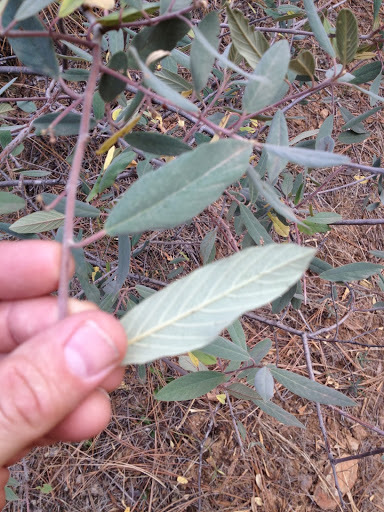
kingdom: Plantae
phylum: Tracheophyta
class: Magnoliopsida
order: Rosales
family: Rhamnaceae
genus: Frangula
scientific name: Frangula californica
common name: California buckthorn
